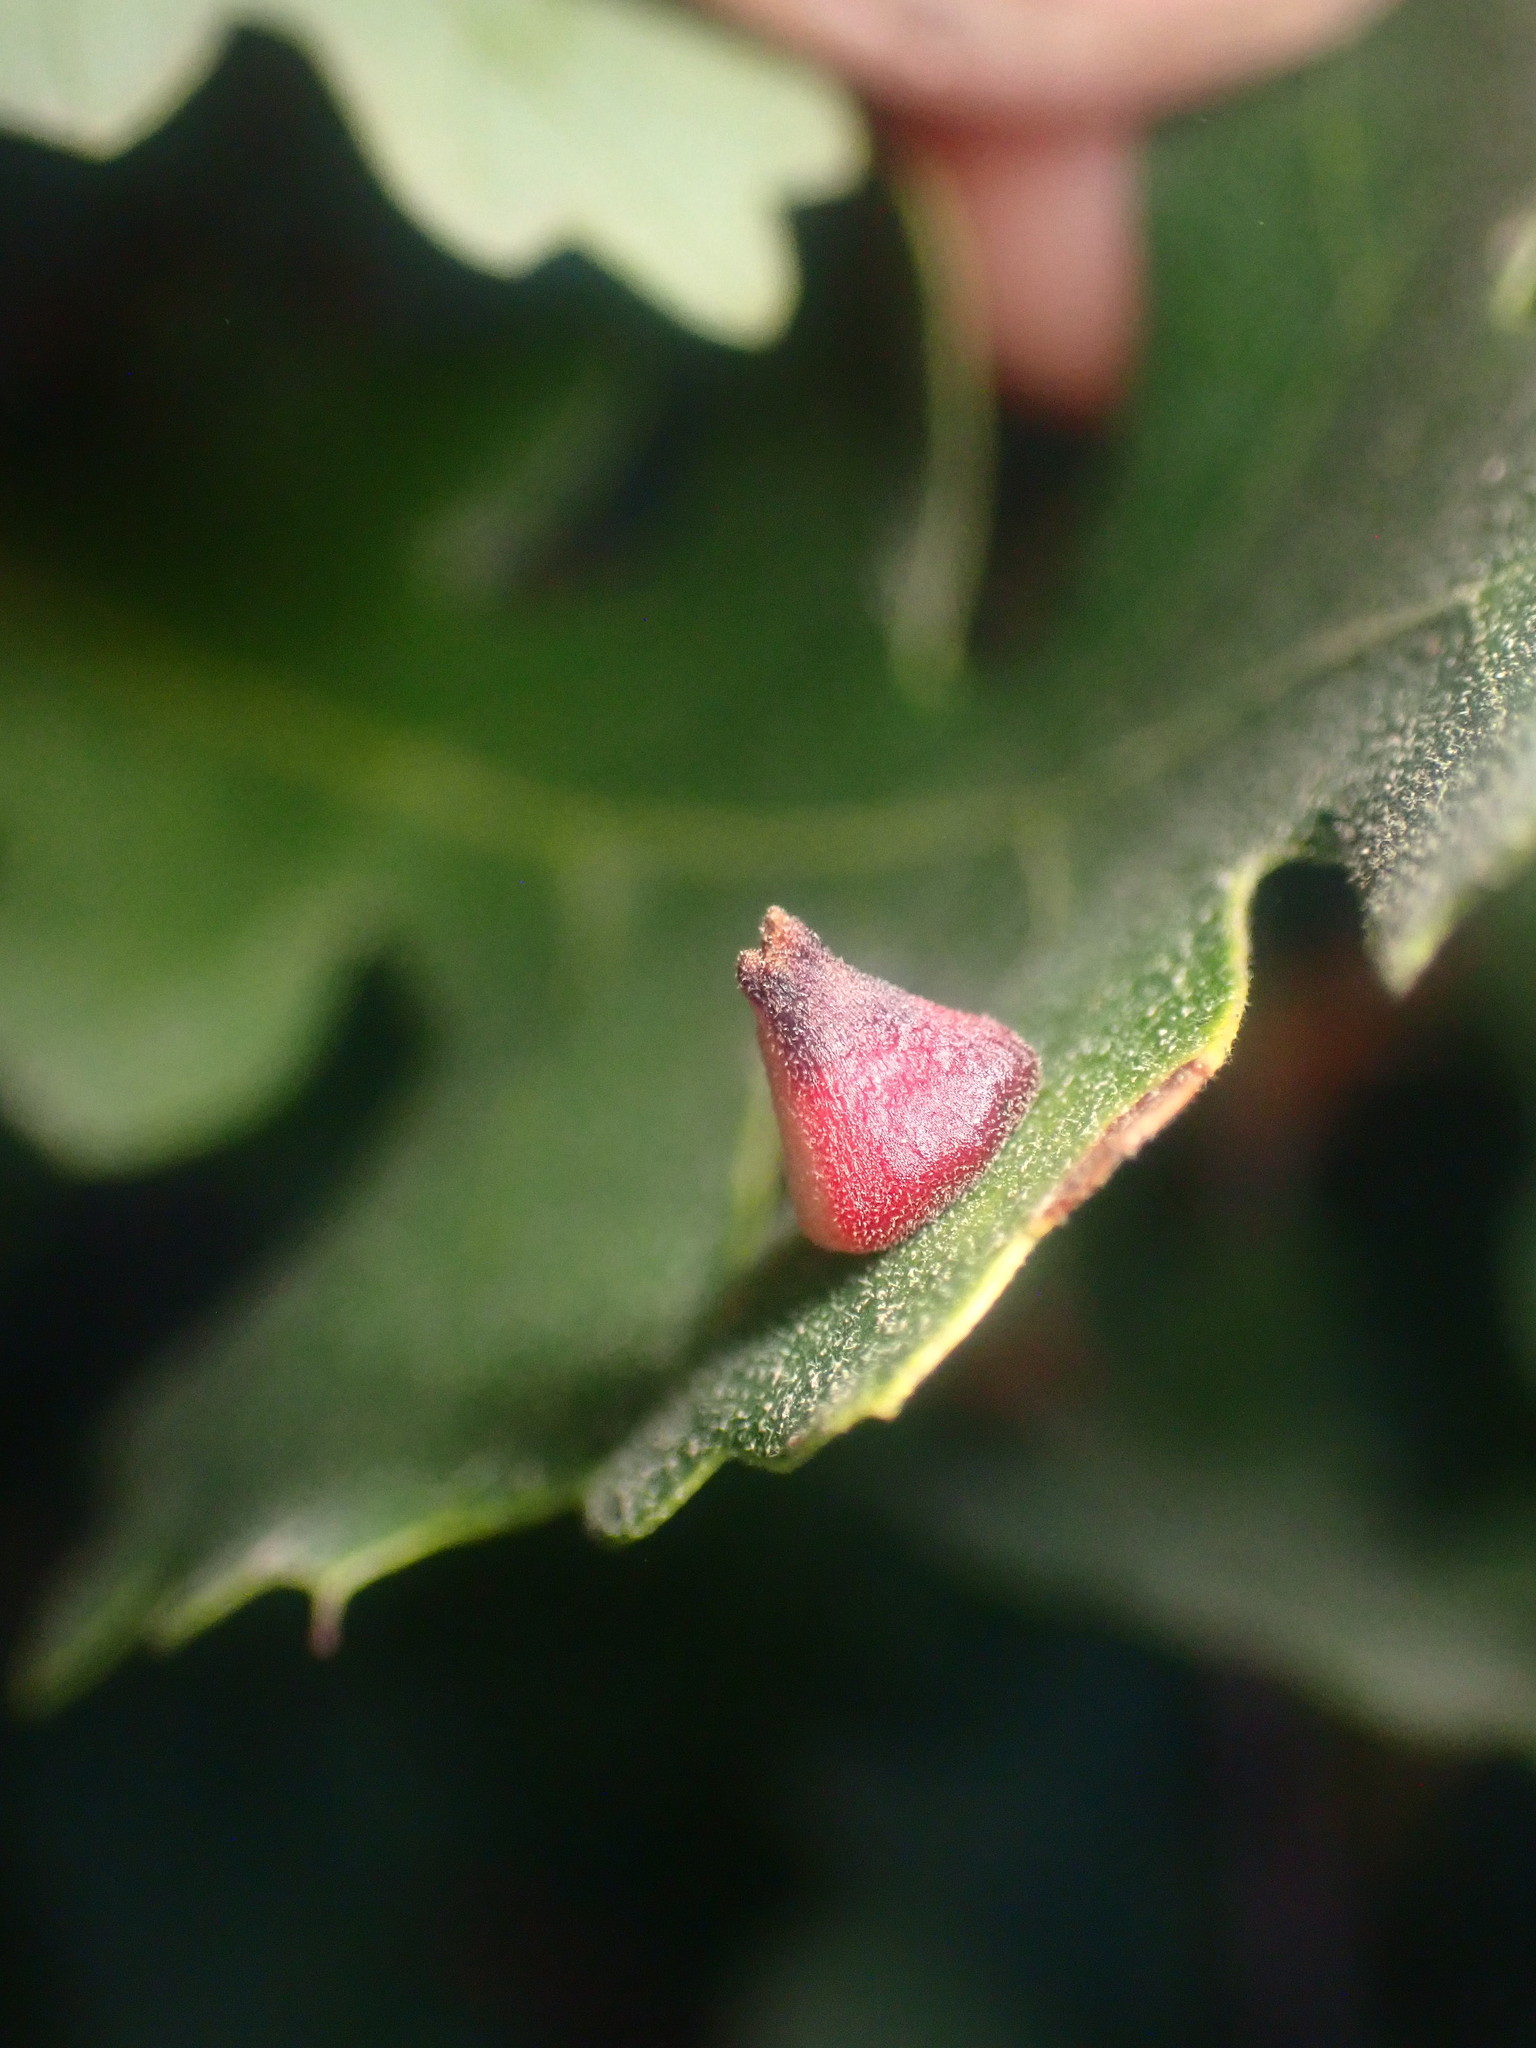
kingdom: Animalia
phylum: Arthropoda
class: Insecta
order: Hymenoptera
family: Cynipidae
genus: Andricus
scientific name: Andricus
